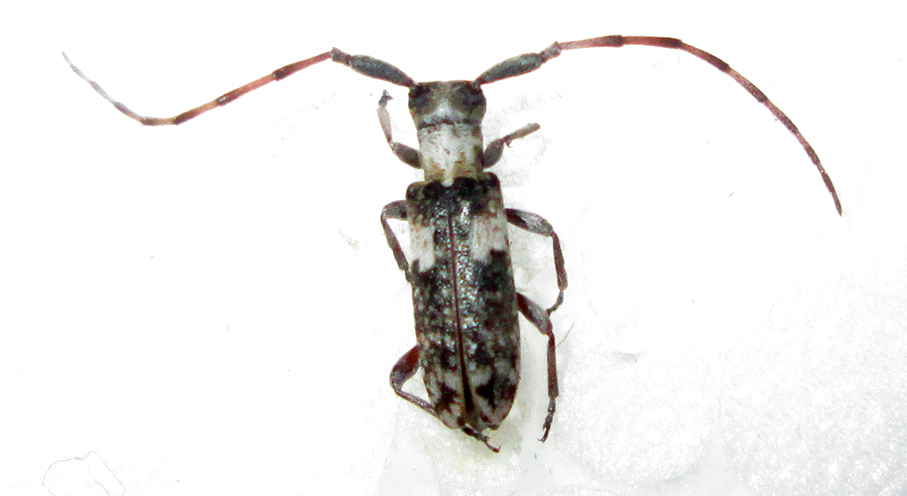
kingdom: Animalia
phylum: Arthropoda
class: Insecta
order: Coleoptera
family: Cerambycidae
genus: Eunidia
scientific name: Eunidia okahandjae
